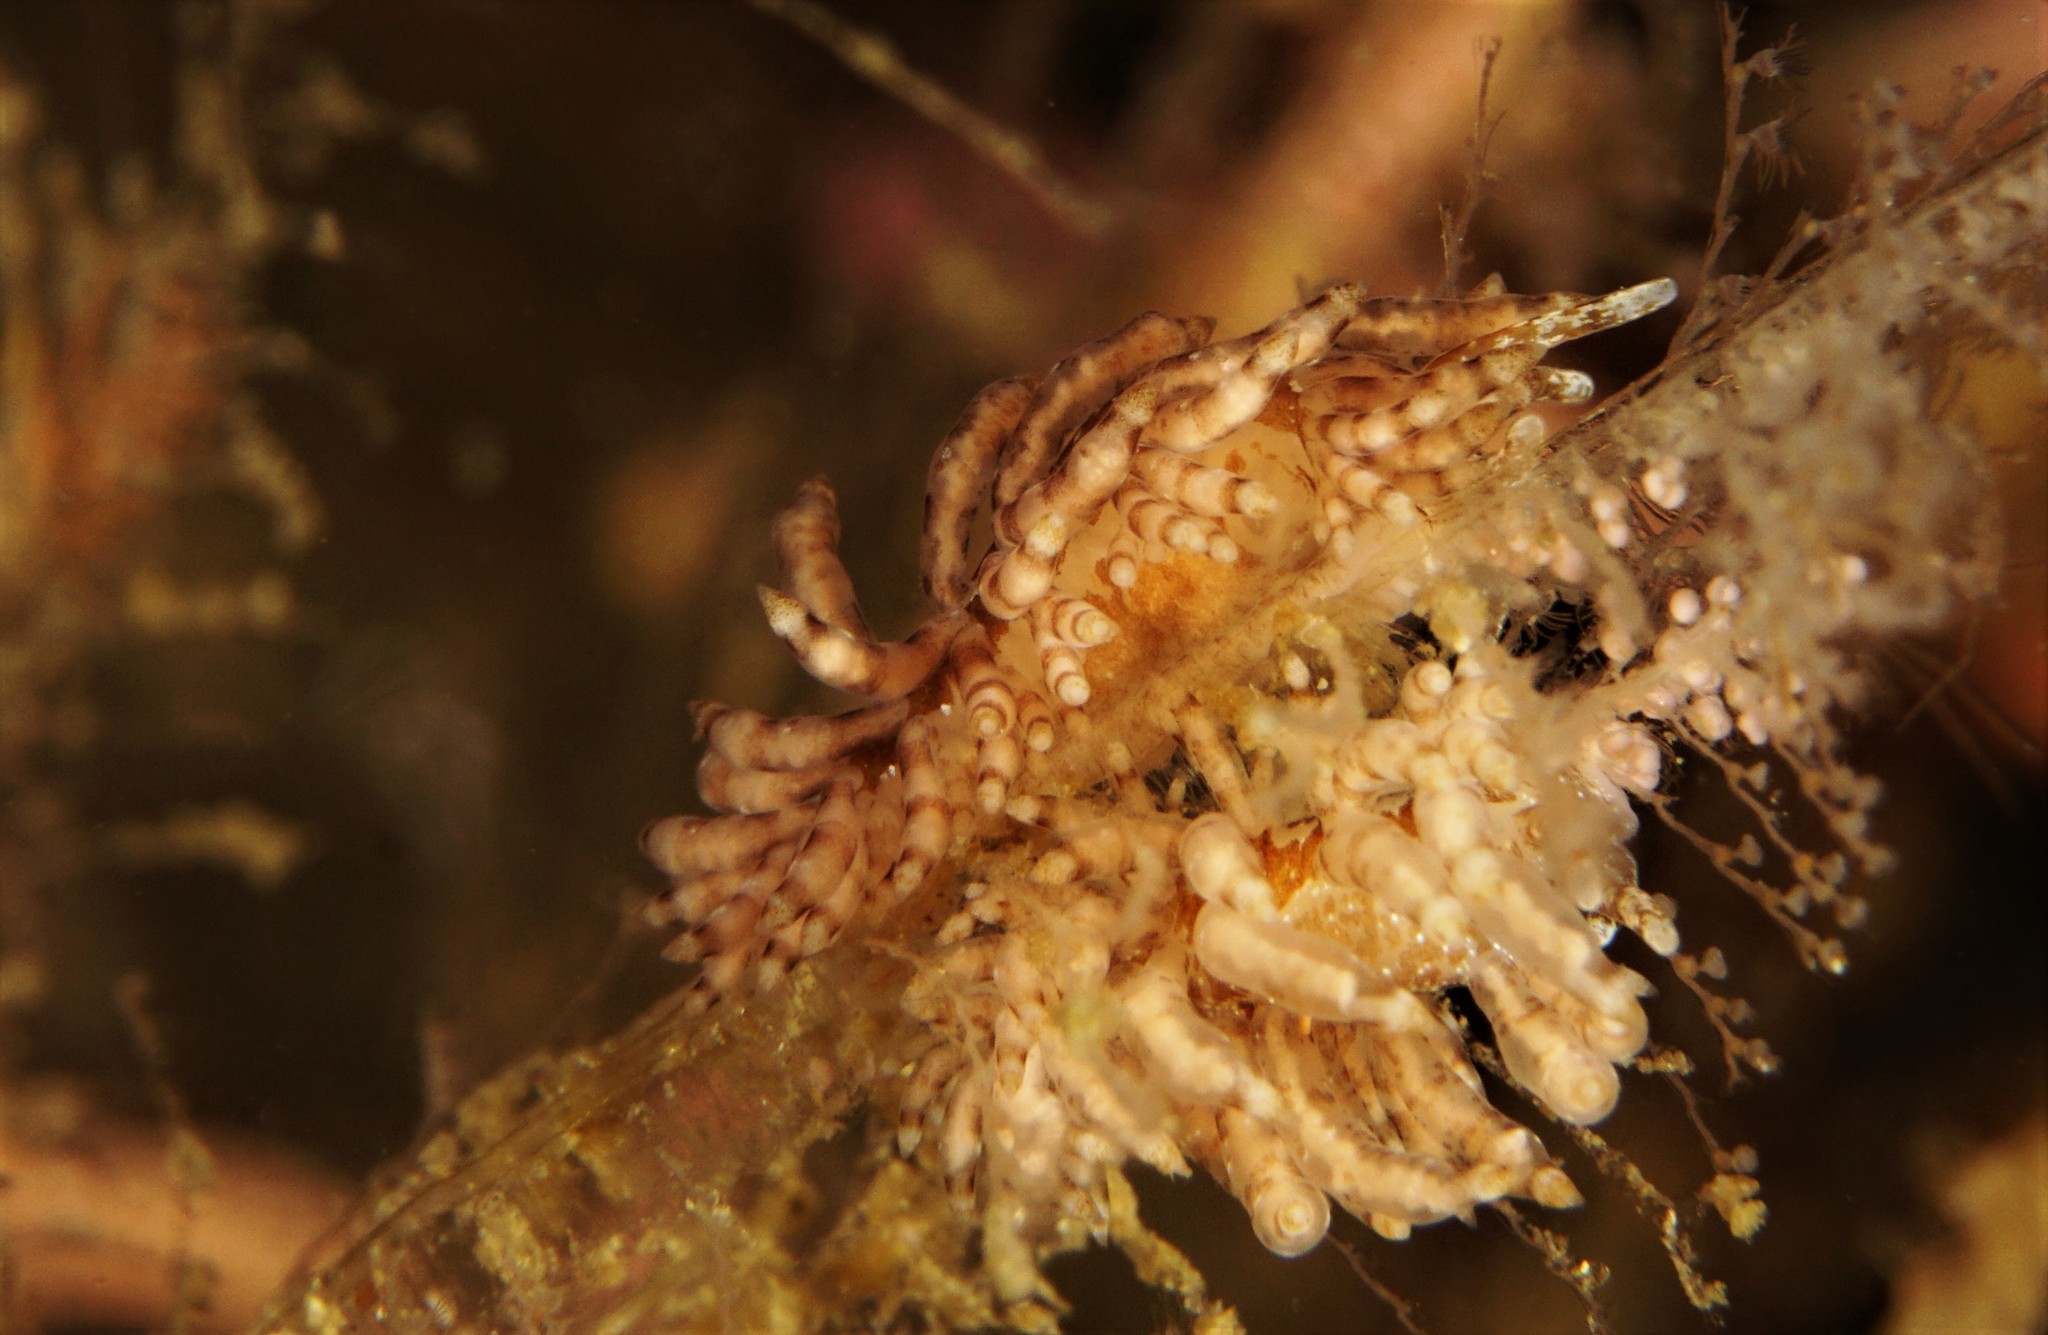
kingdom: Animalia
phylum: Mollusca
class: Gastropoda
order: Nudibranchia
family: Eubranchidae
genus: Eubranchus
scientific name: Eubranchus vittatus
